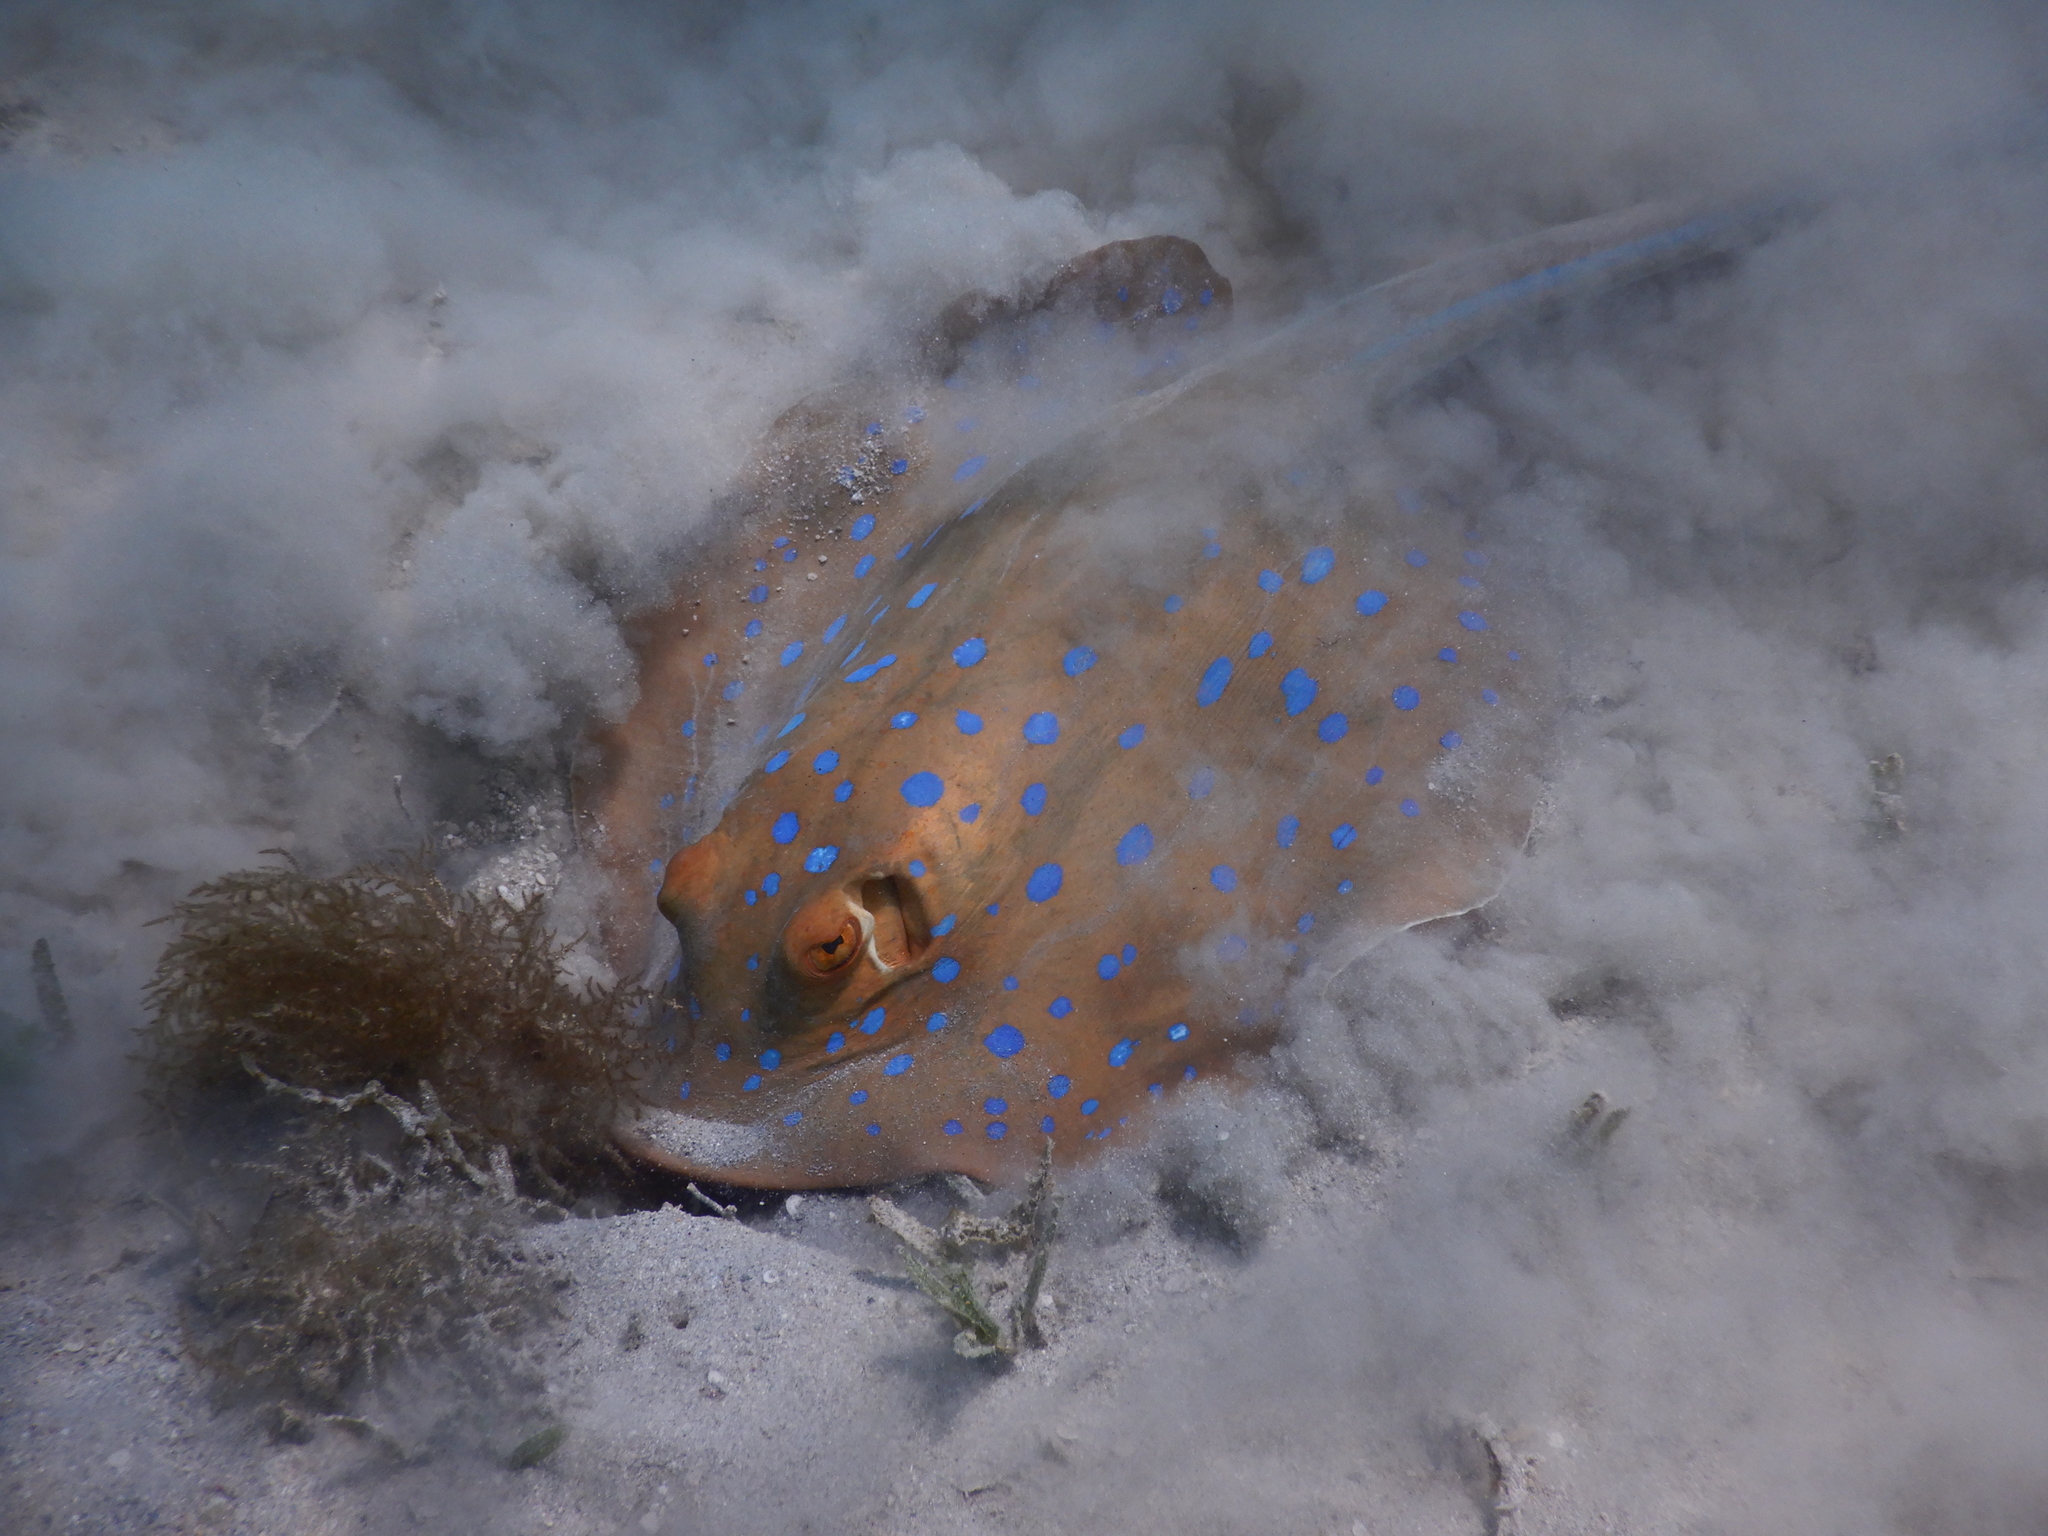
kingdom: Animalia
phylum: Chordata
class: Elasmobranchii
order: Myliobatiformes
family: Dasyatidae
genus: Taeniura
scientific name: Taeniura lymma
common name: Bluespotted ribbontail ray
